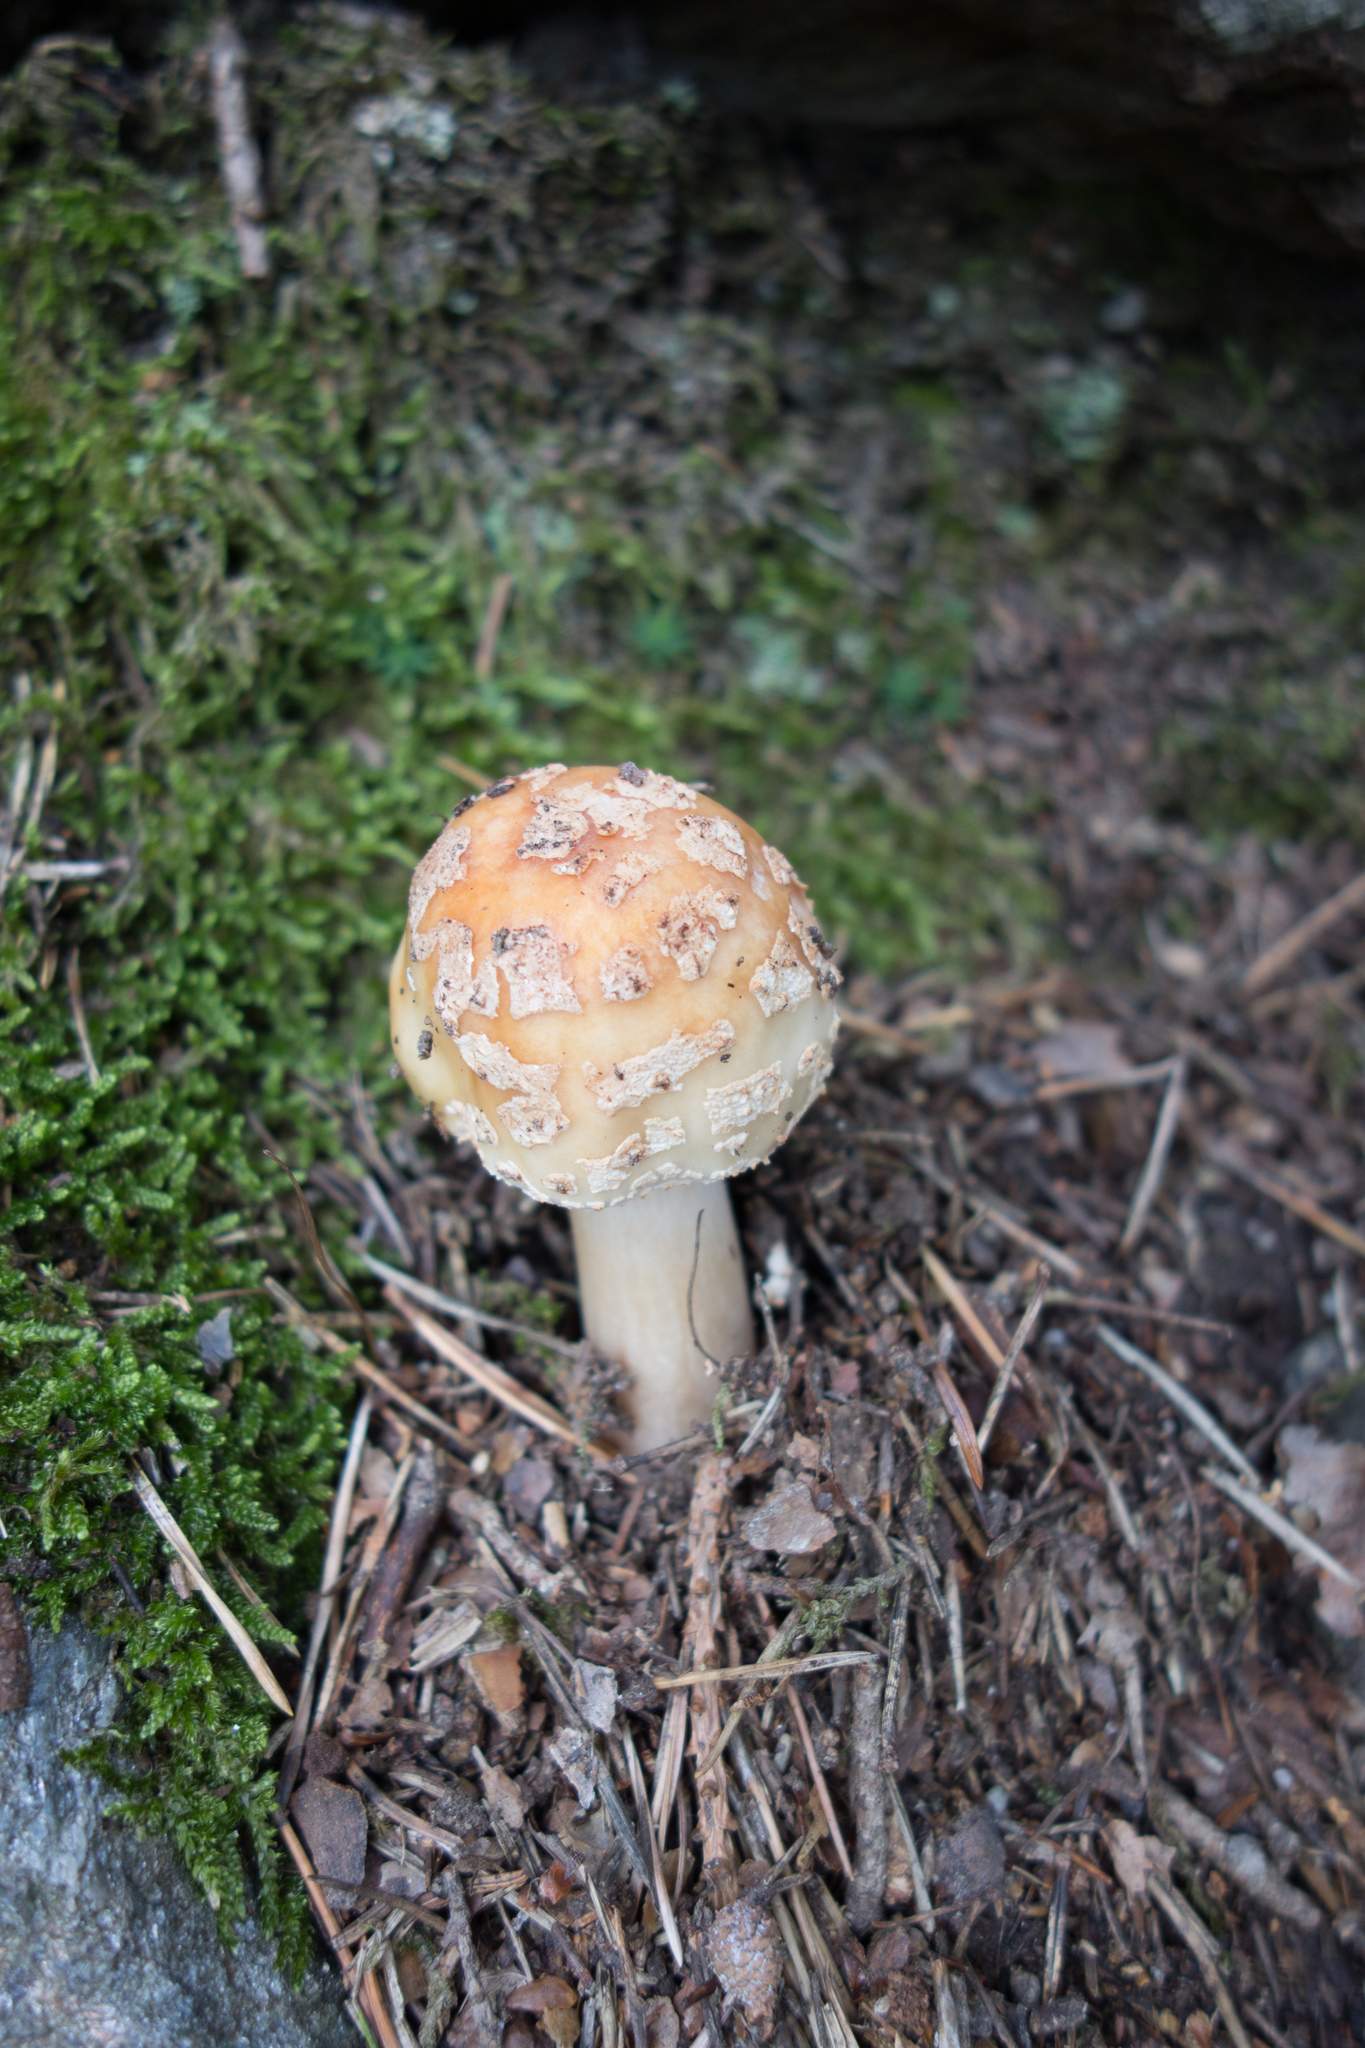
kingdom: Fungi
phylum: Basidiomycota
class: Agaricomycetes
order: Agaricales
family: Amanitaceae
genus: Amanita
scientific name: Amanita rubescens
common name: Blusher
